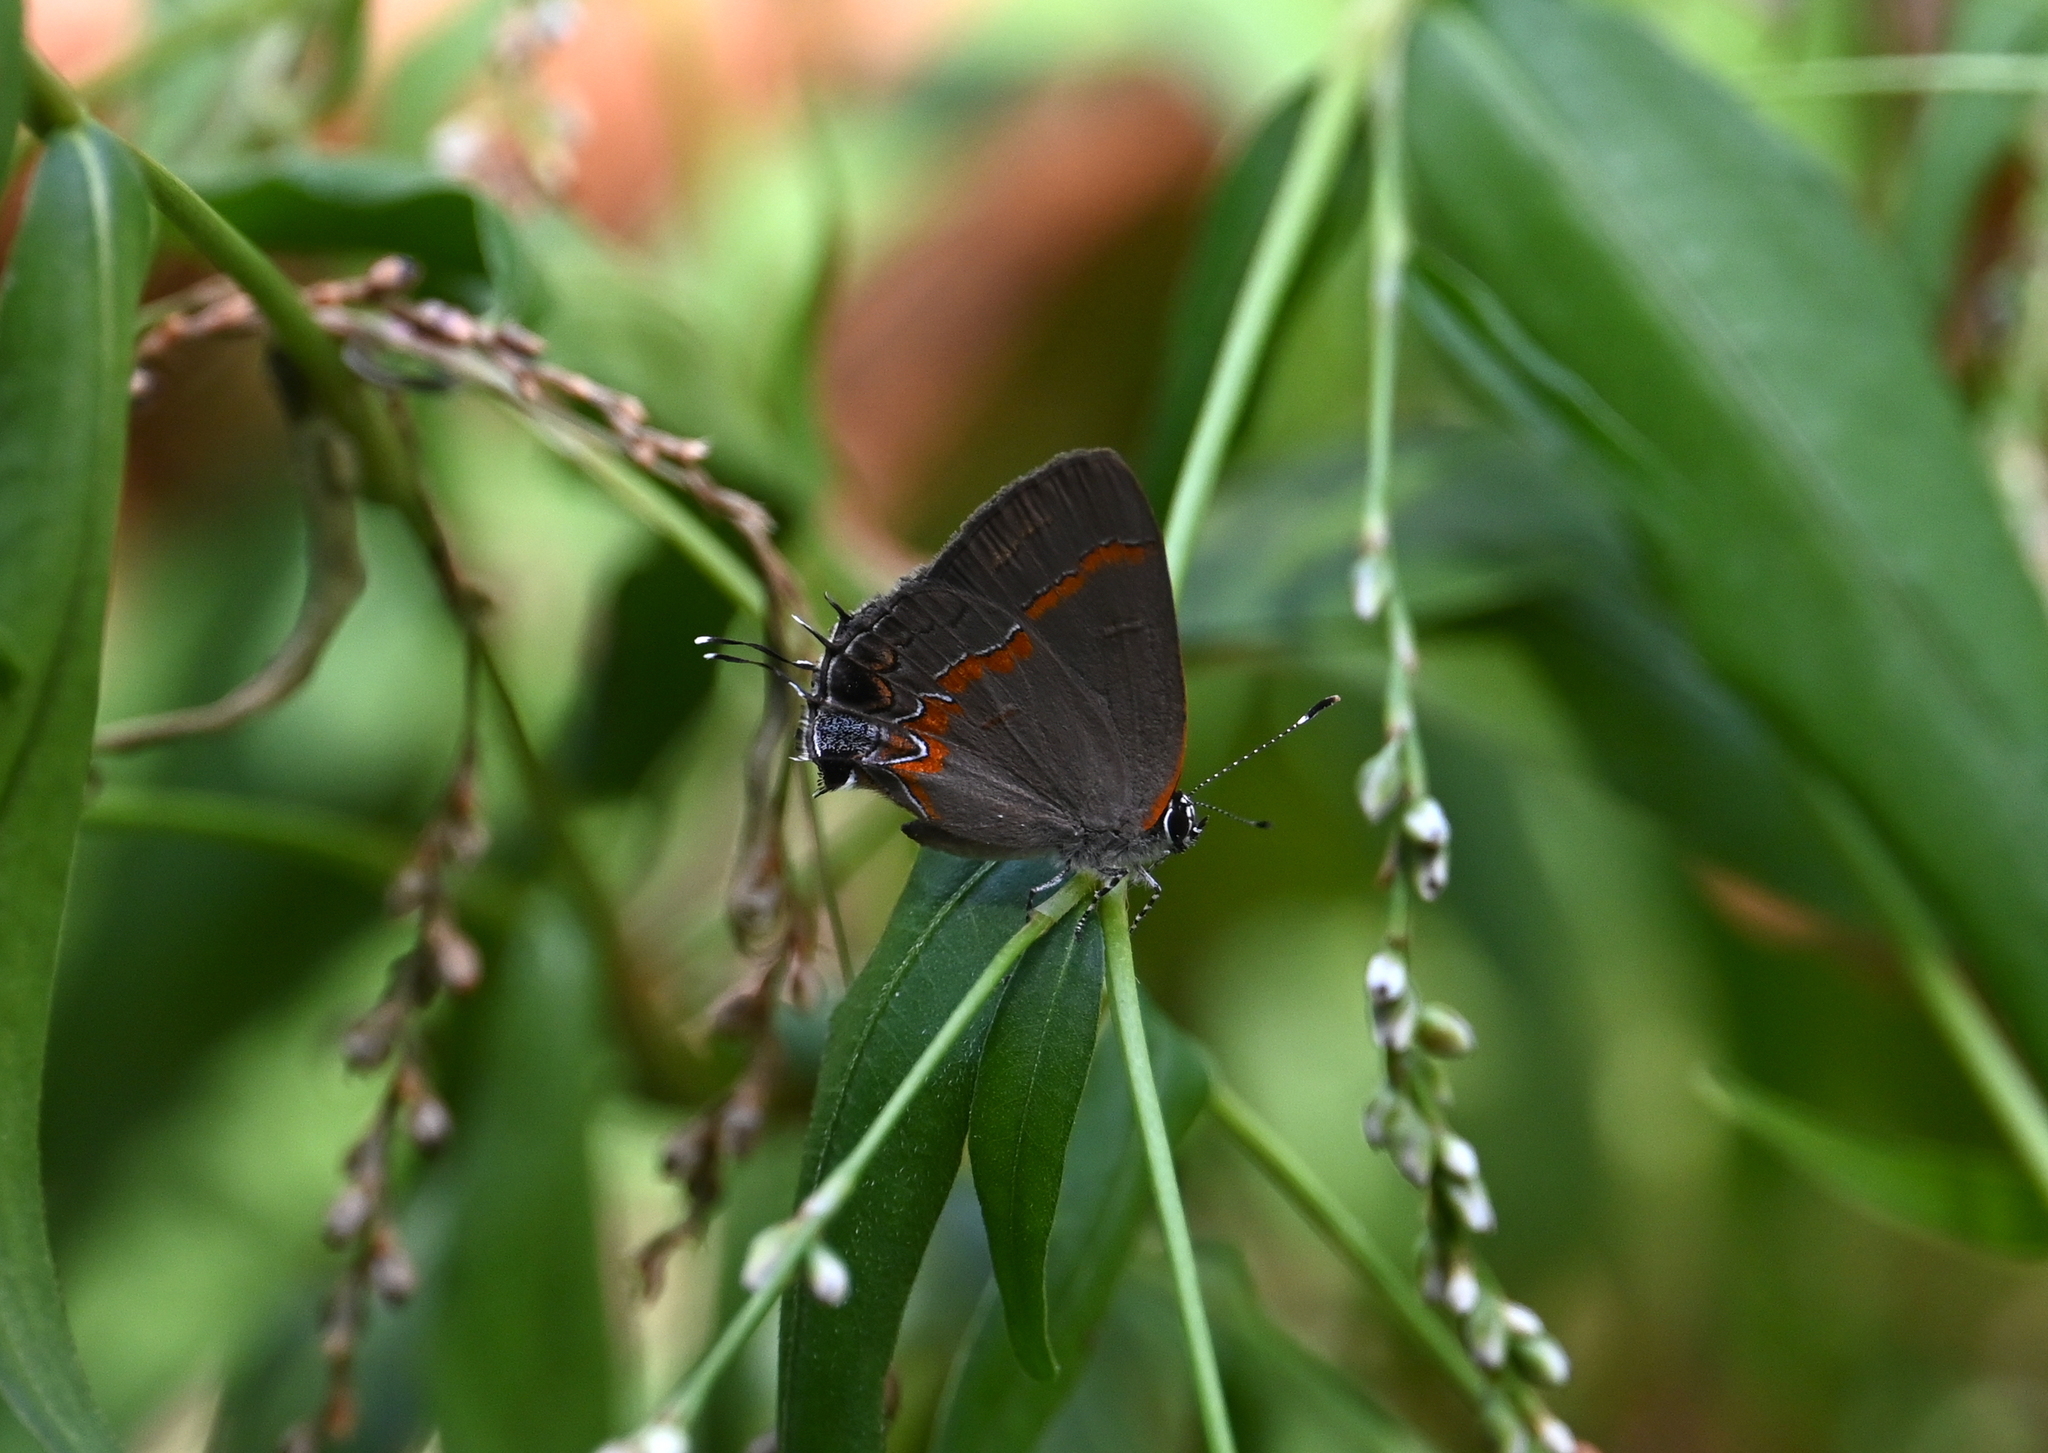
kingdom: Animalia
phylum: Arthropoda
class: Insecta
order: Lepidoptera
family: Lycaenidae
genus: Calycopis
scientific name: Calycopis cecrops
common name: Red-banded hairstreak
